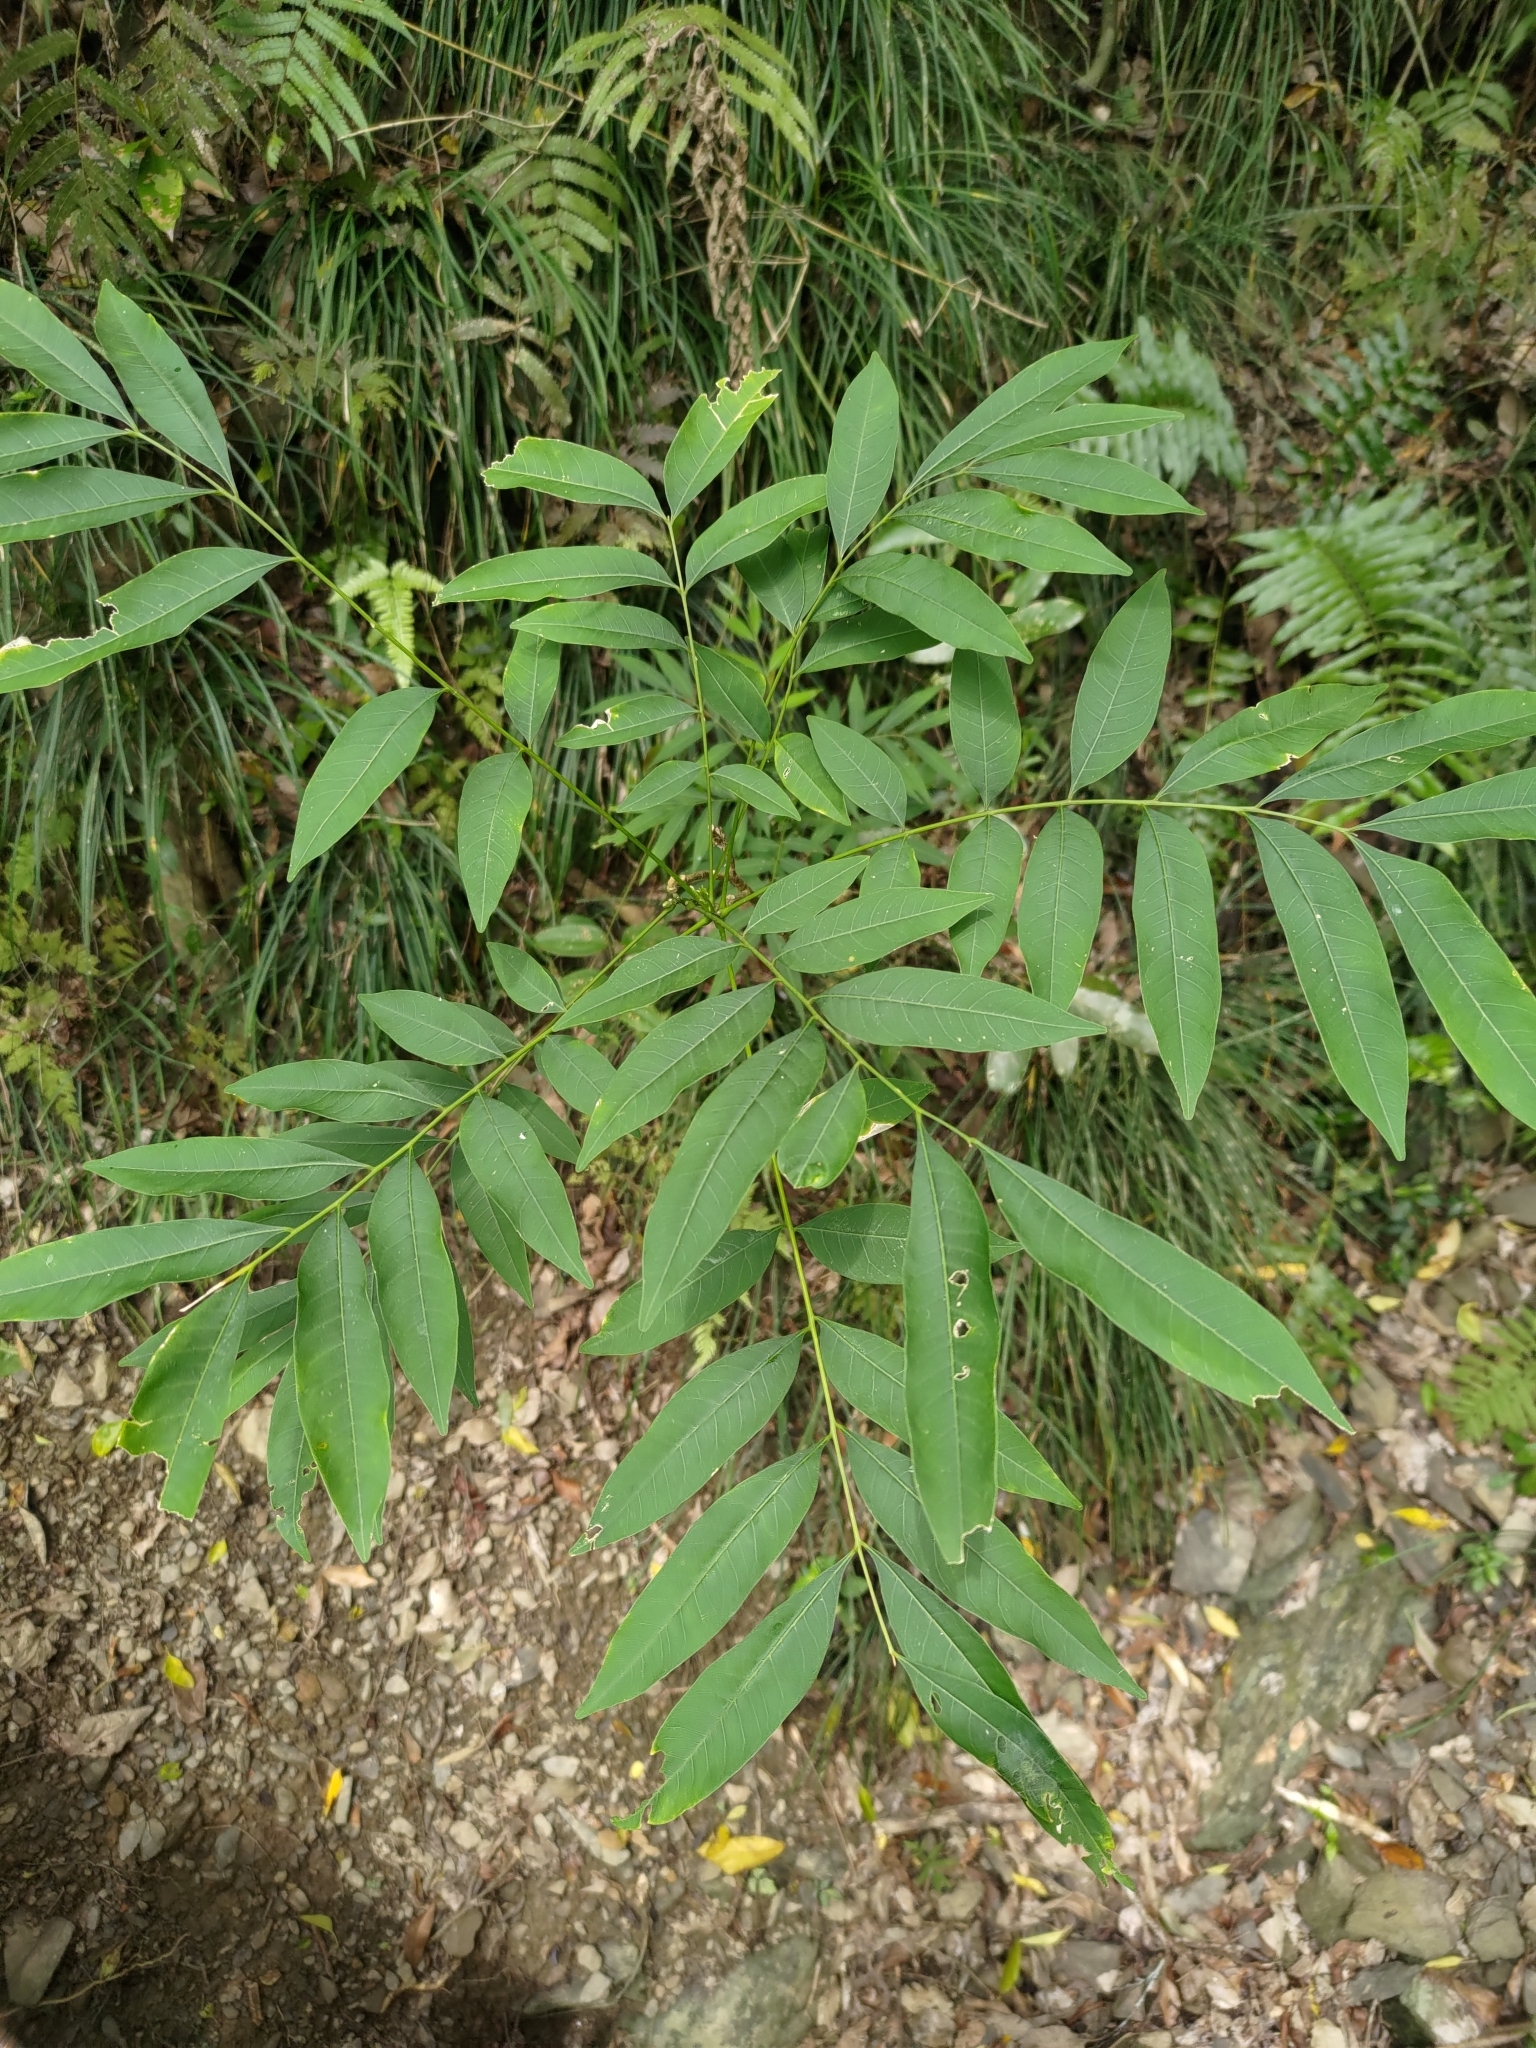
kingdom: Plantae
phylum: Tracheophyta
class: Magnoliopsida
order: Sapindales
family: Sapindaceae
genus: Sapindus
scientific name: Sapindus mukorossi
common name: Chinese soapberry
